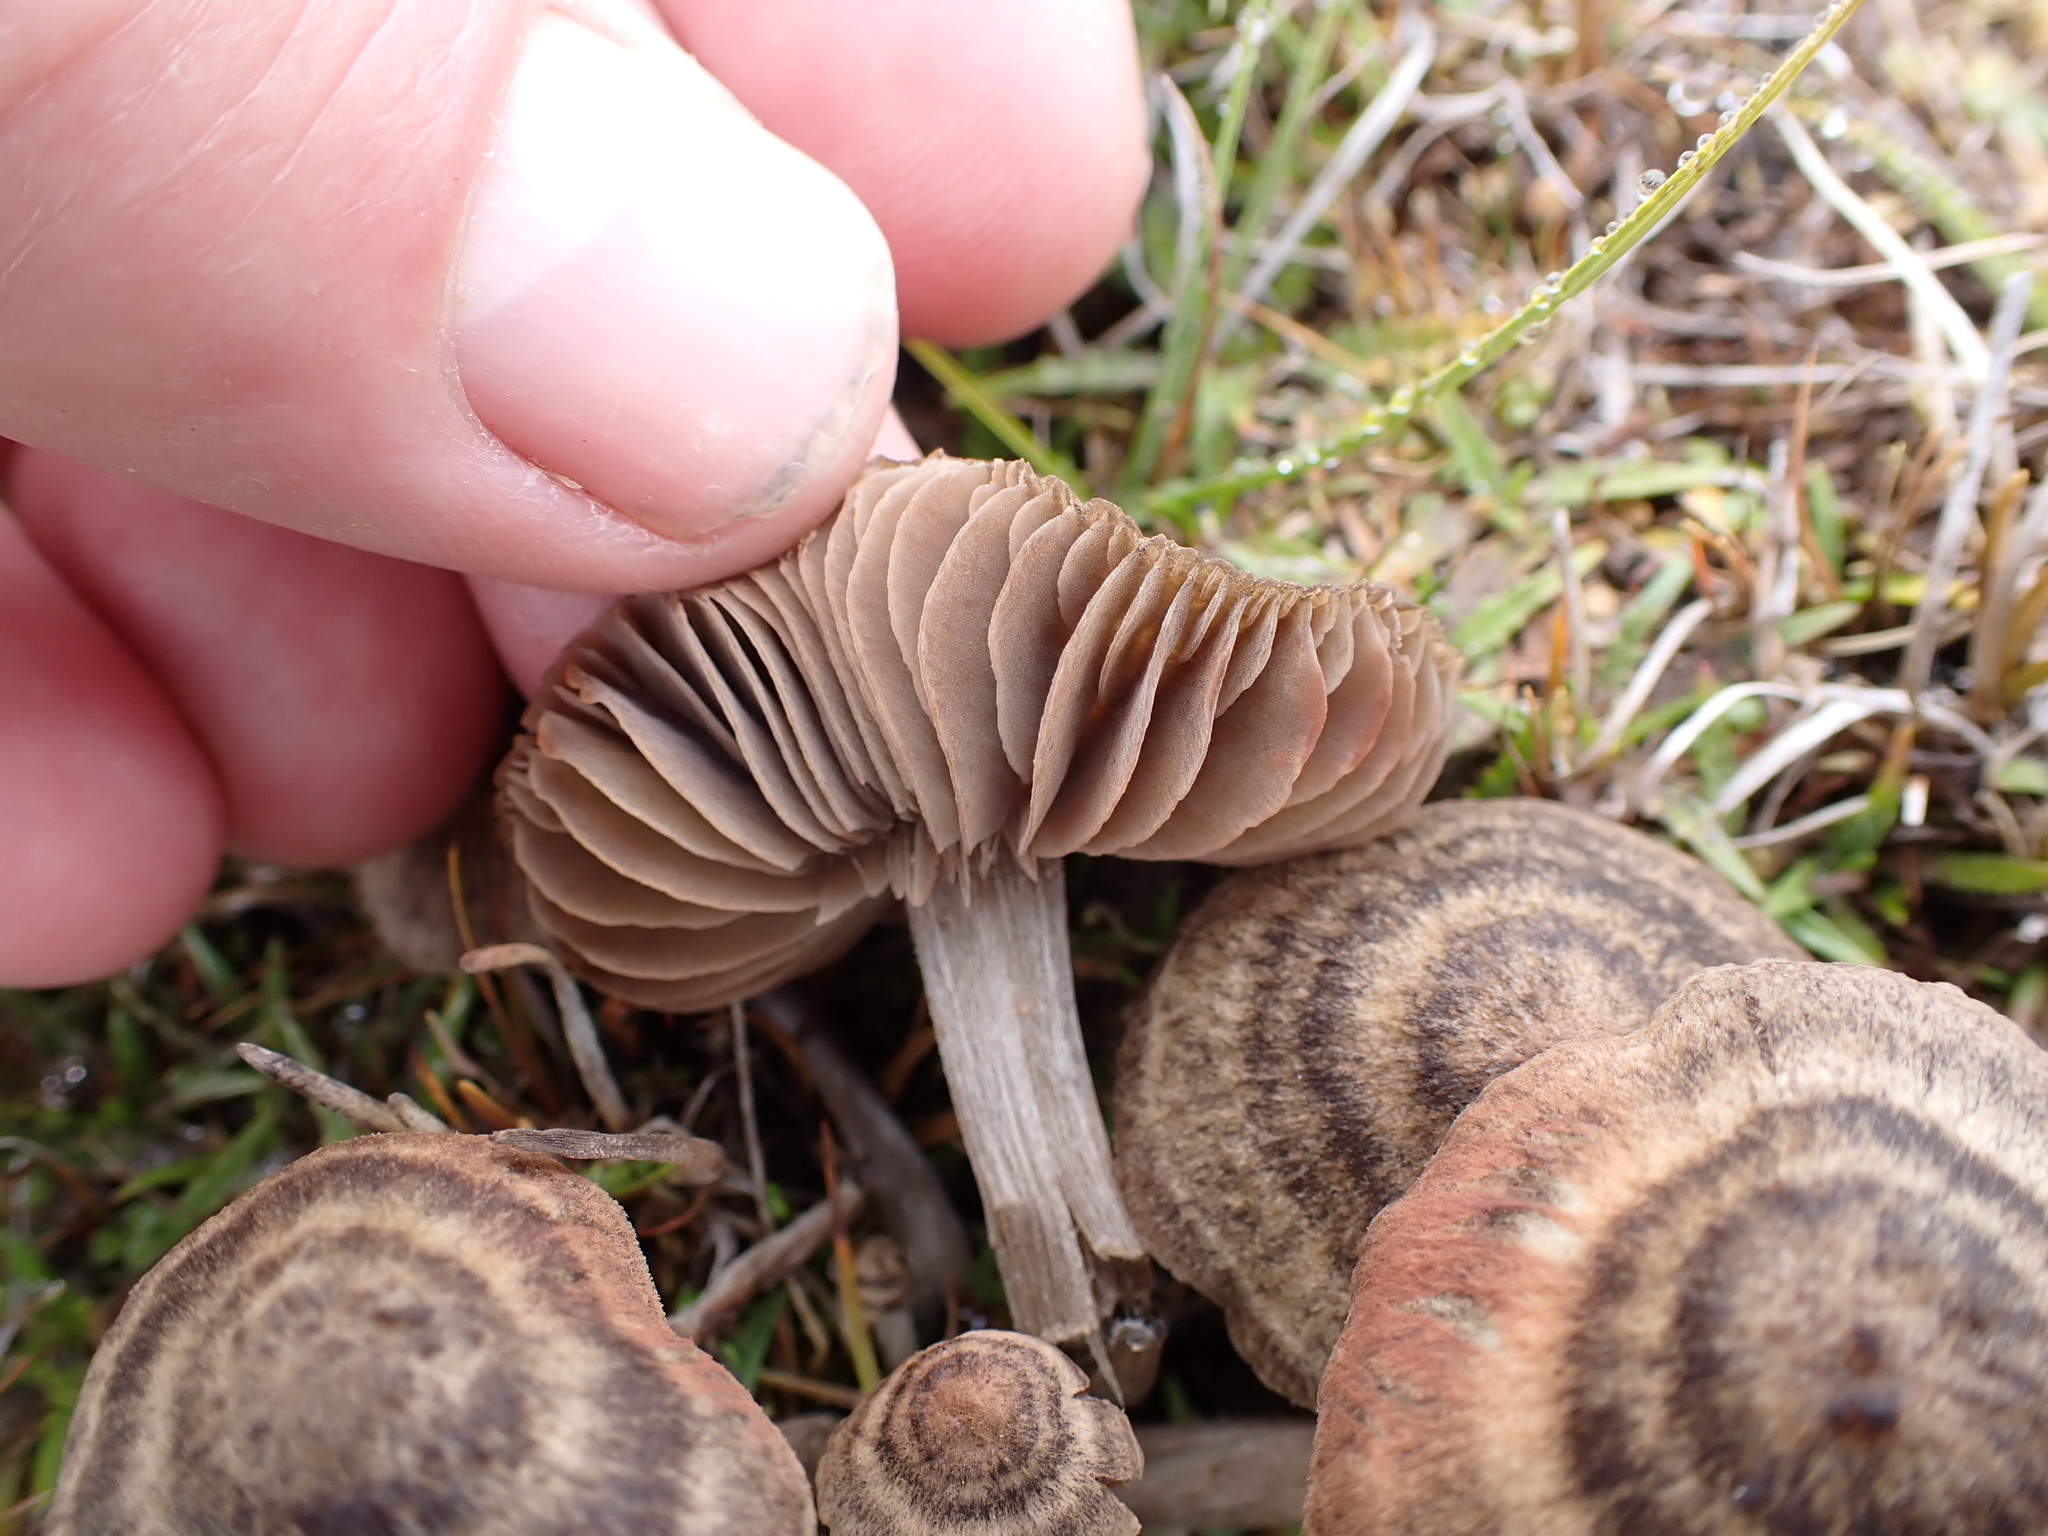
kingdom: Fungi
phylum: Basidiomycota
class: Agaricomycetes
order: Agaricales
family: Entolomataceae
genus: Entoloma
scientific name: Entoloma perzonatum
